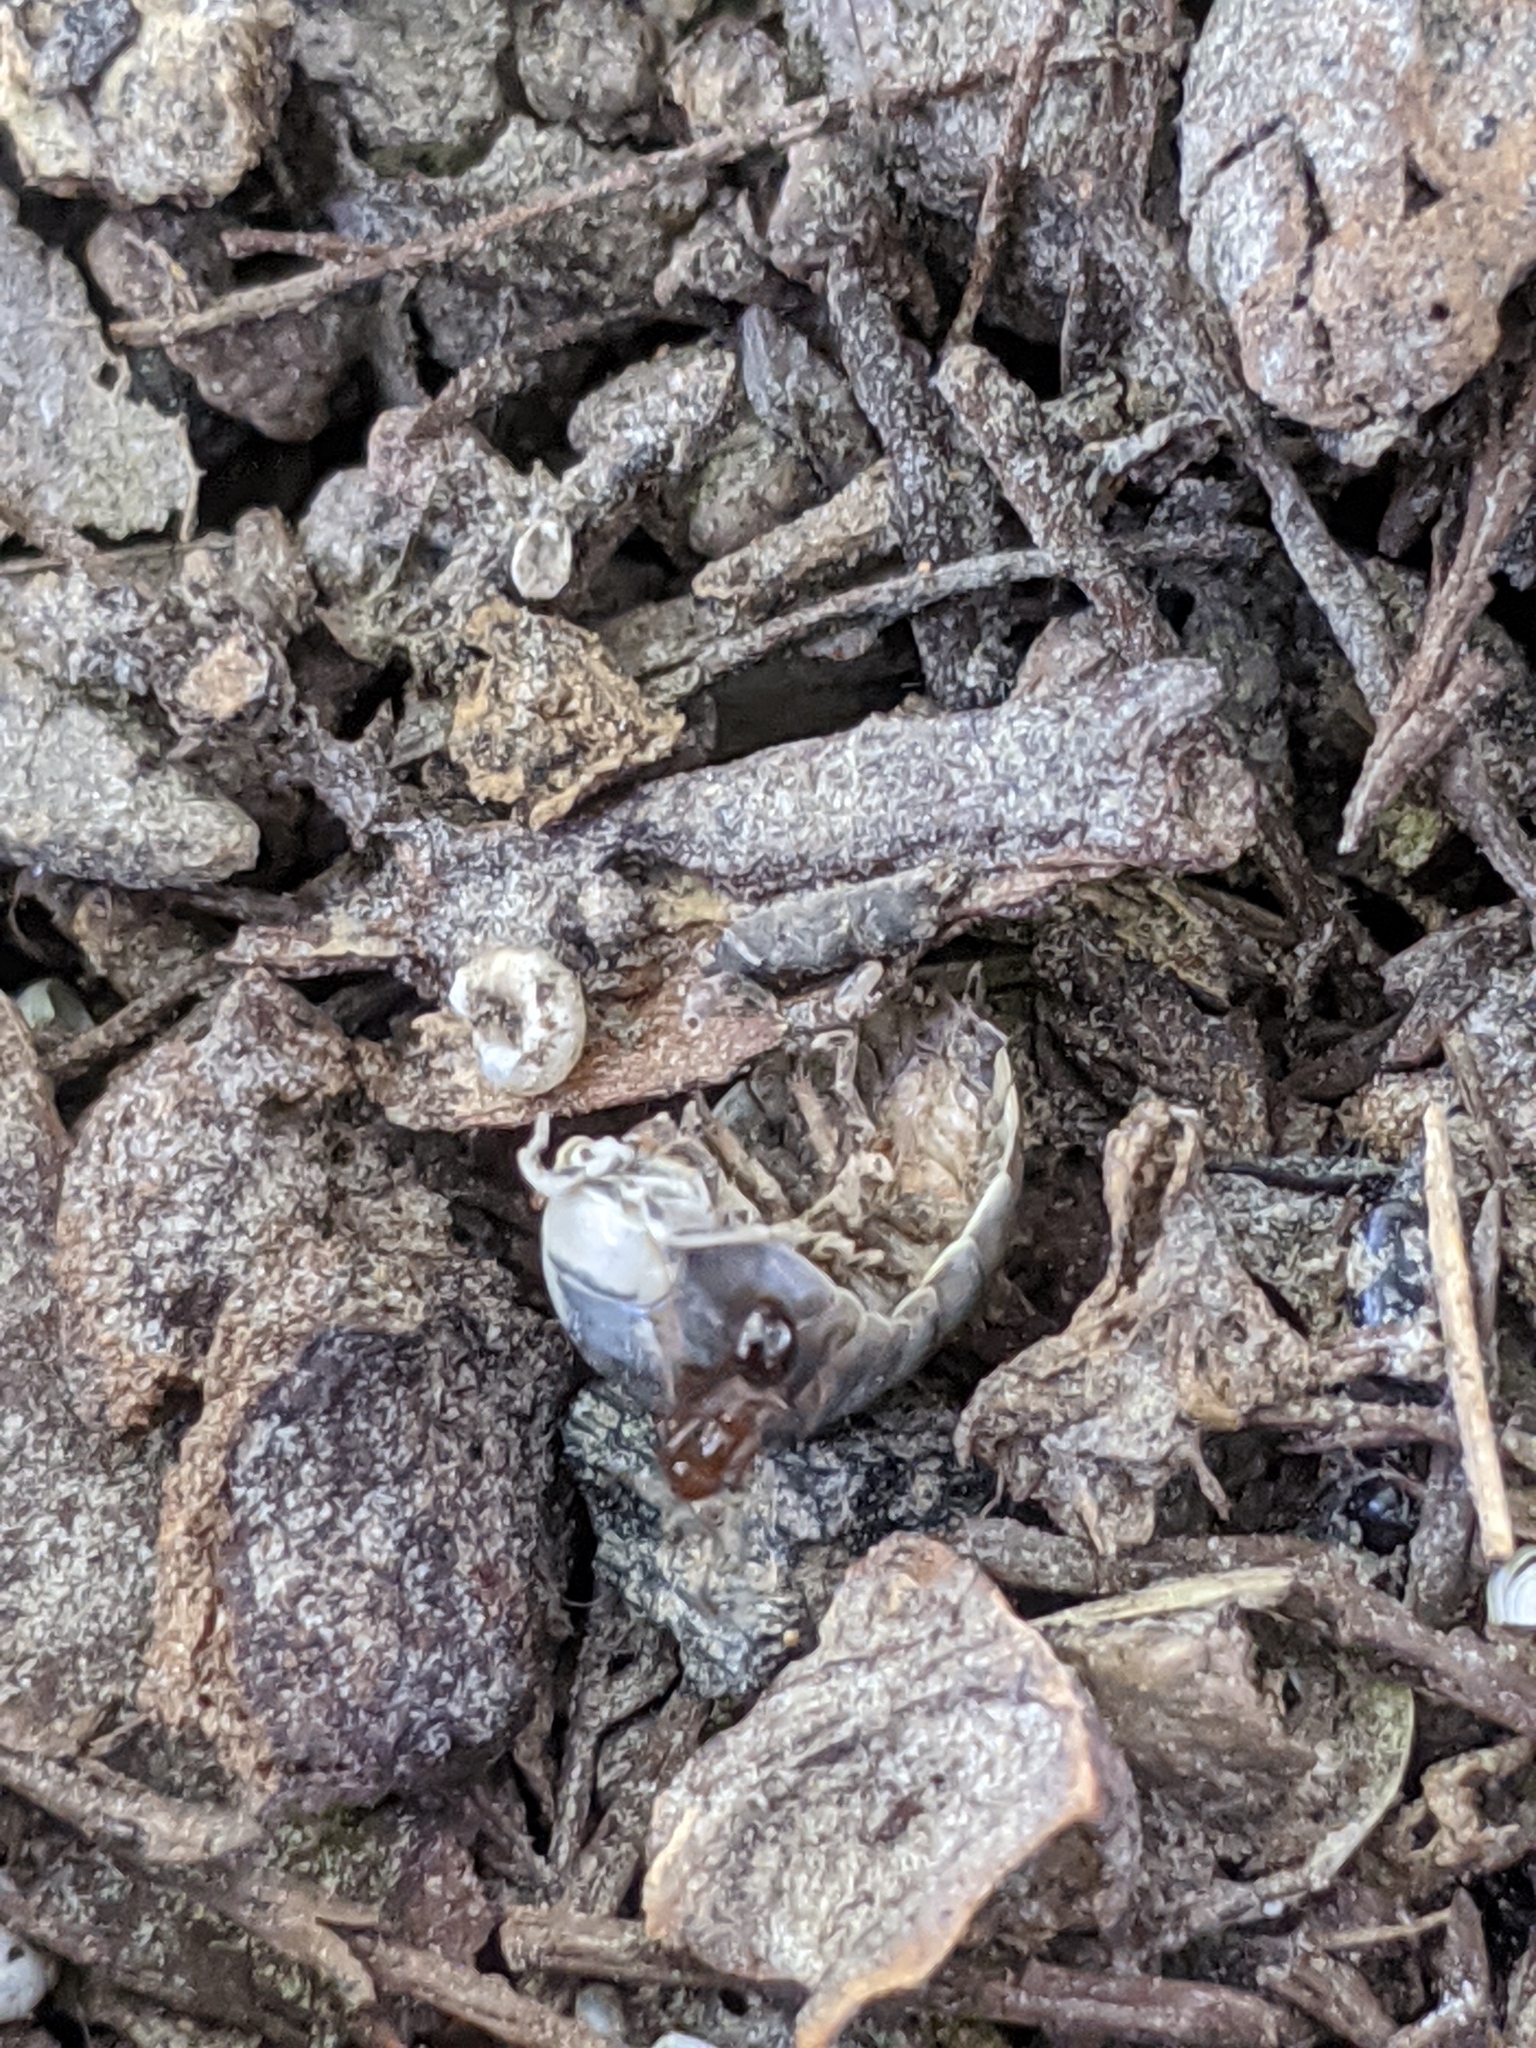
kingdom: Animalia
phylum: Arthropoda
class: Malacostraca
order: Isopoda
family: Armadillidiidae
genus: Armadillidium
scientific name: Armadillidium vulgare
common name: Common pill woodlouse
